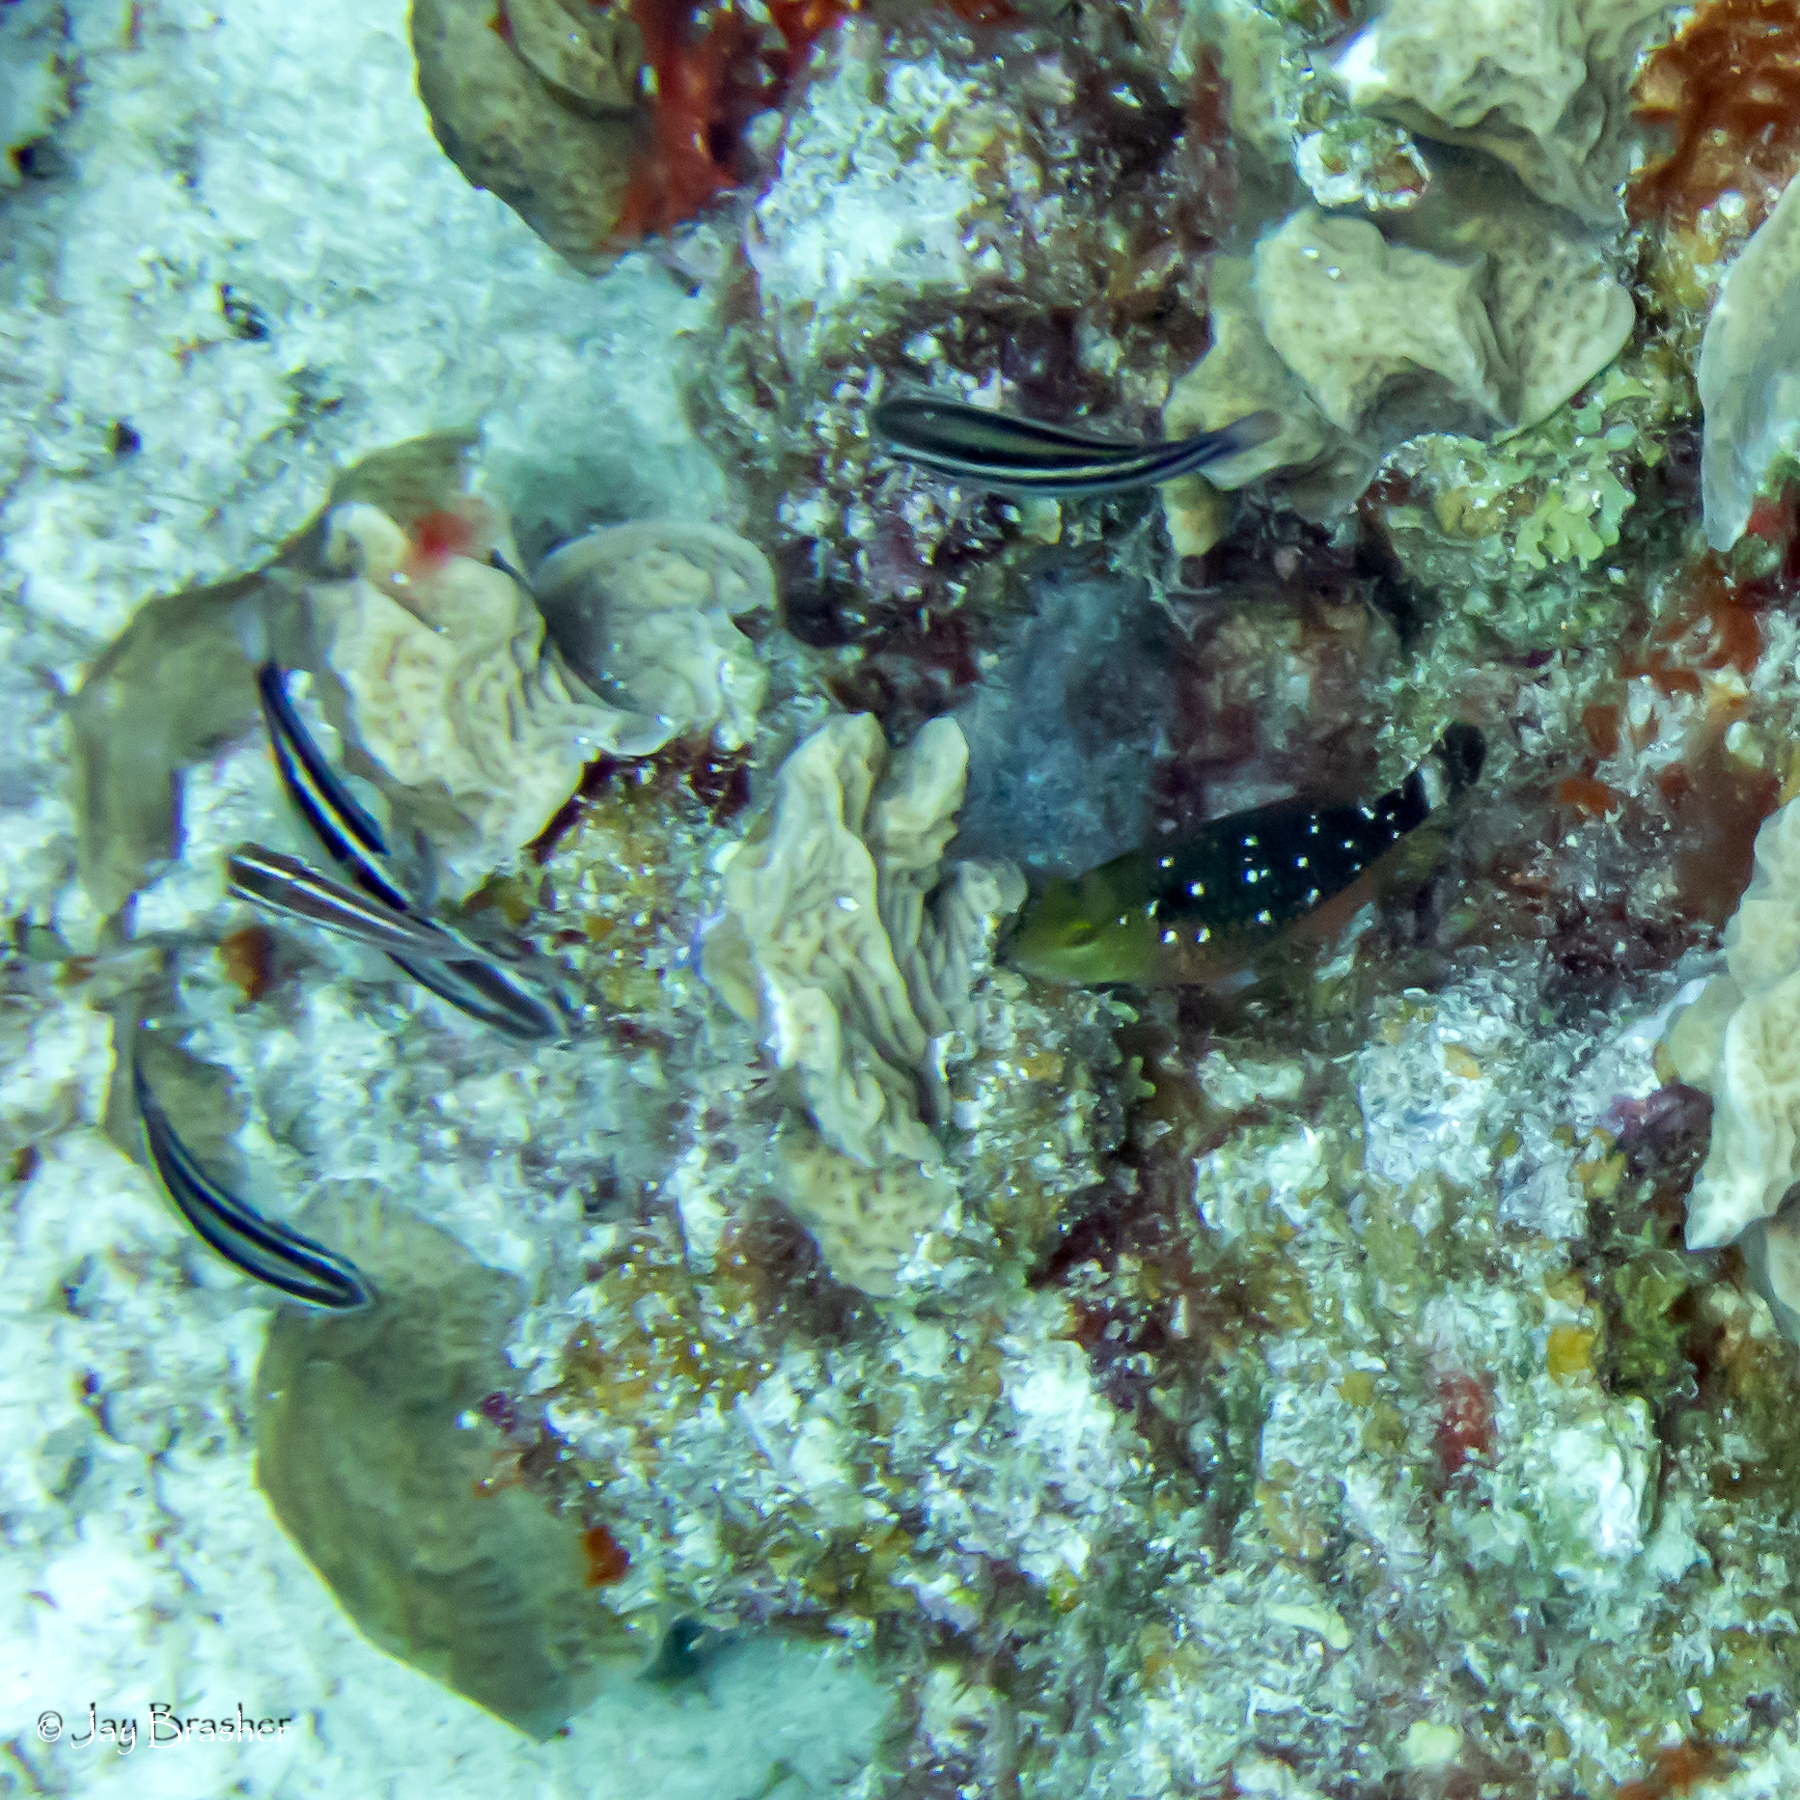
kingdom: Animalia
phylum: Chordata
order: Perciformes
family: Scaridae
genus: Sparisoma
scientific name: Sparisoma viride
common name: Stoplight parrotfish
